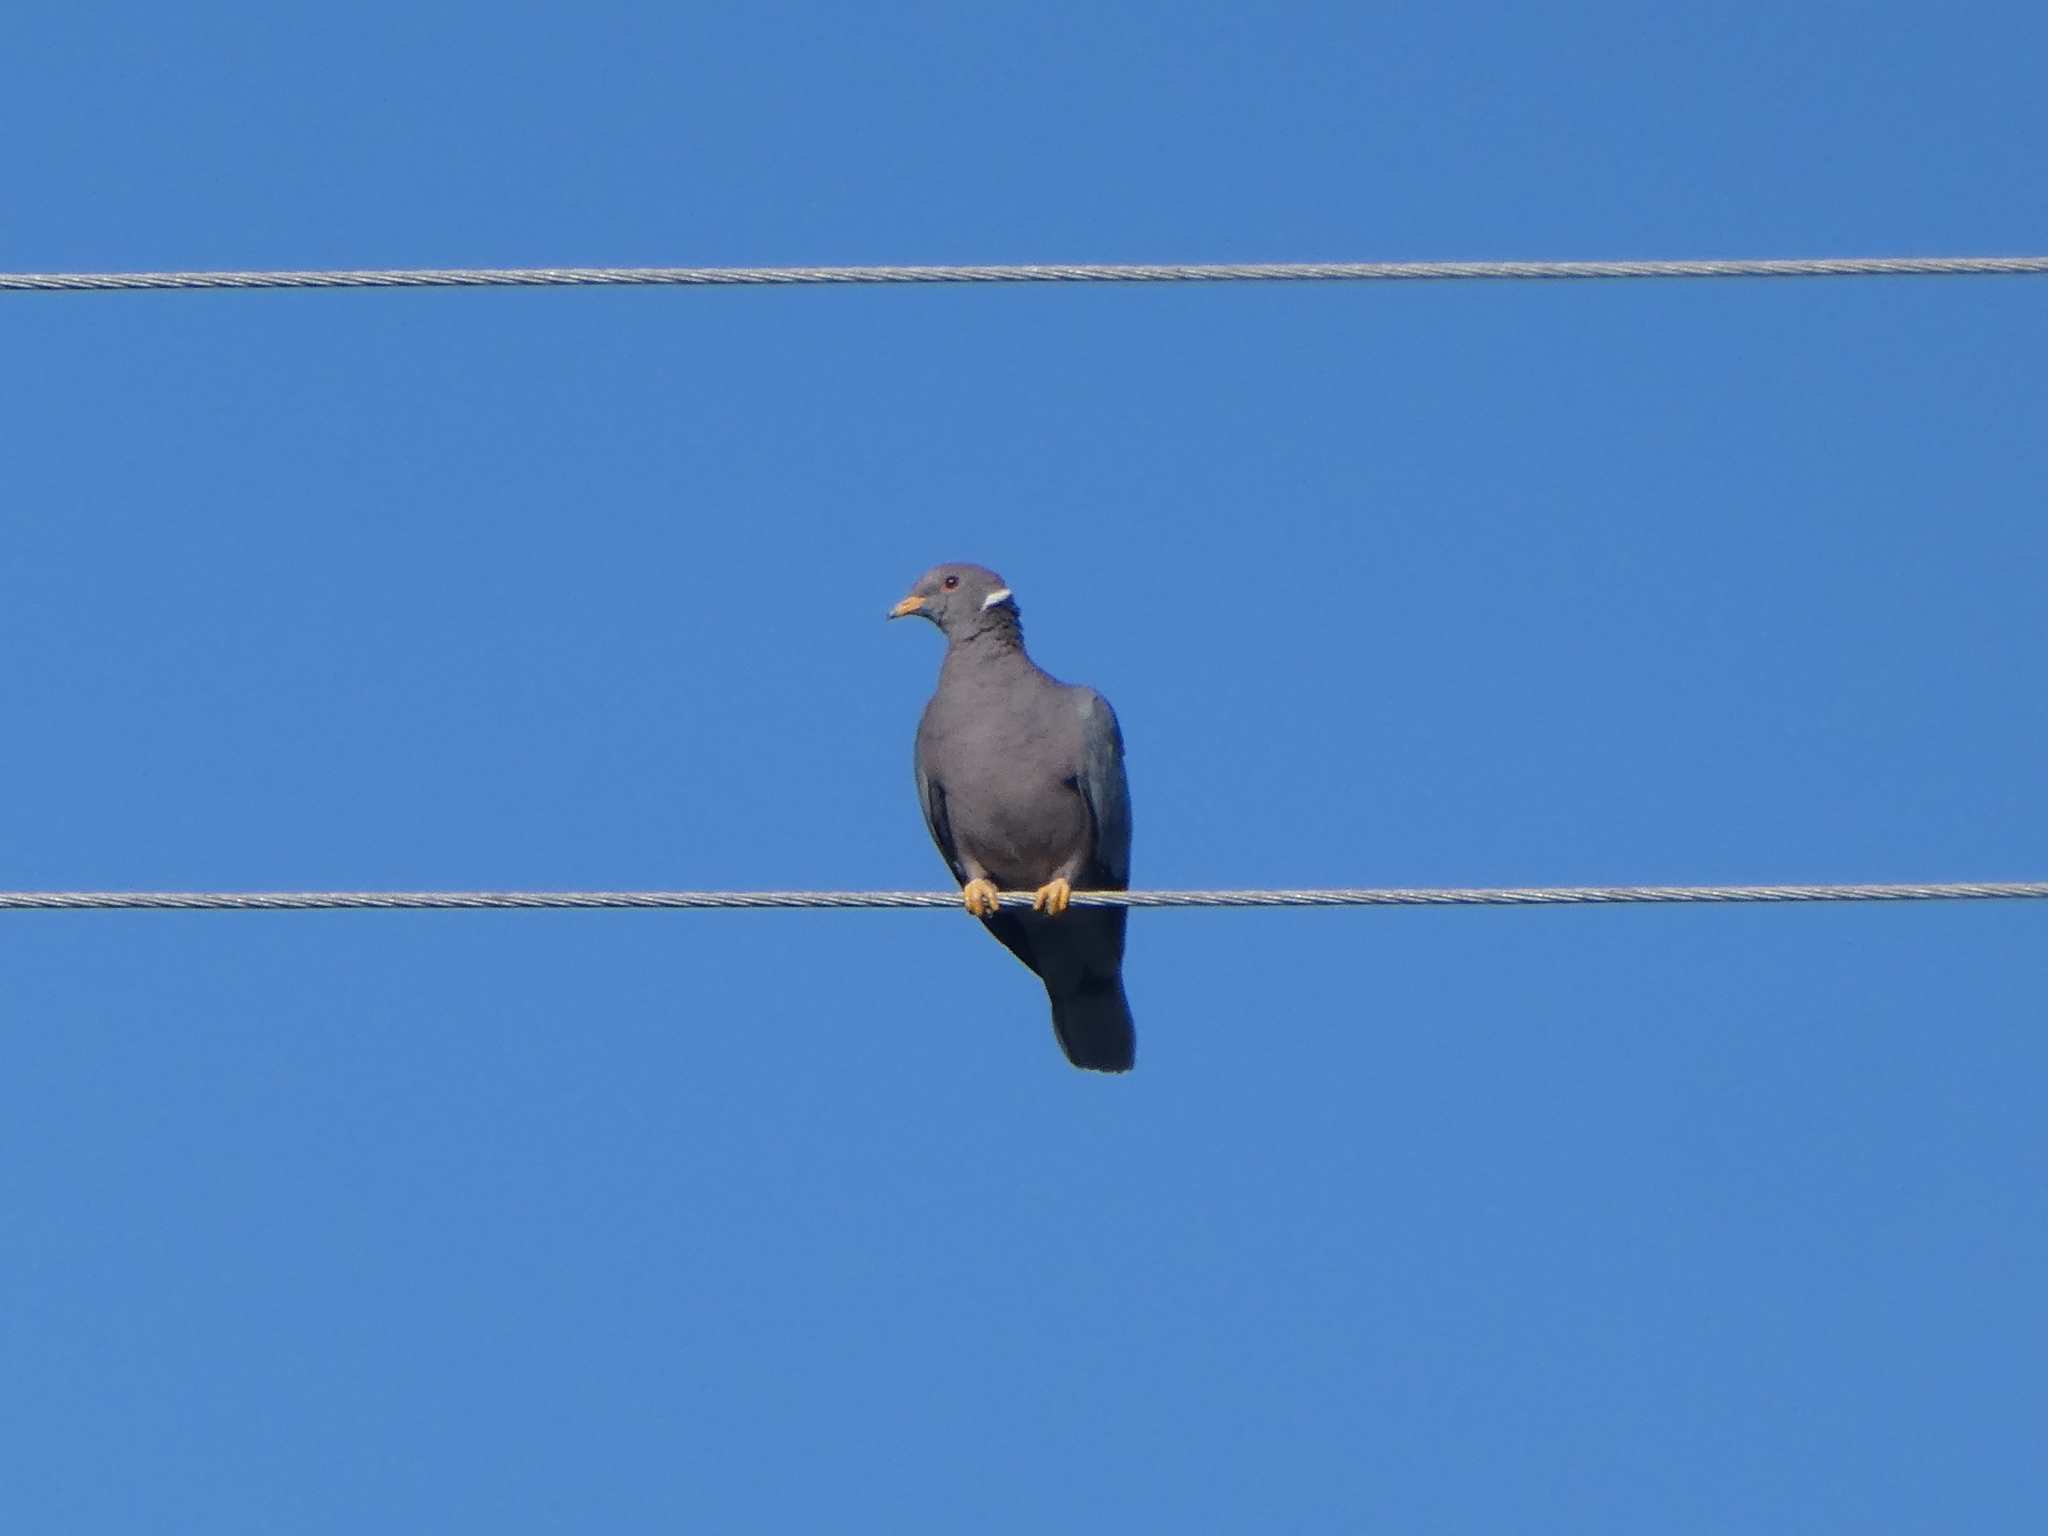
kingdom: Animalia
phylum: Chordata
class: Aves
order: Columbiformes
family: Columbidae
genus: Patagioenas
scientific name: Patagioenas fasciata
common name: Band-tailed pigeon
